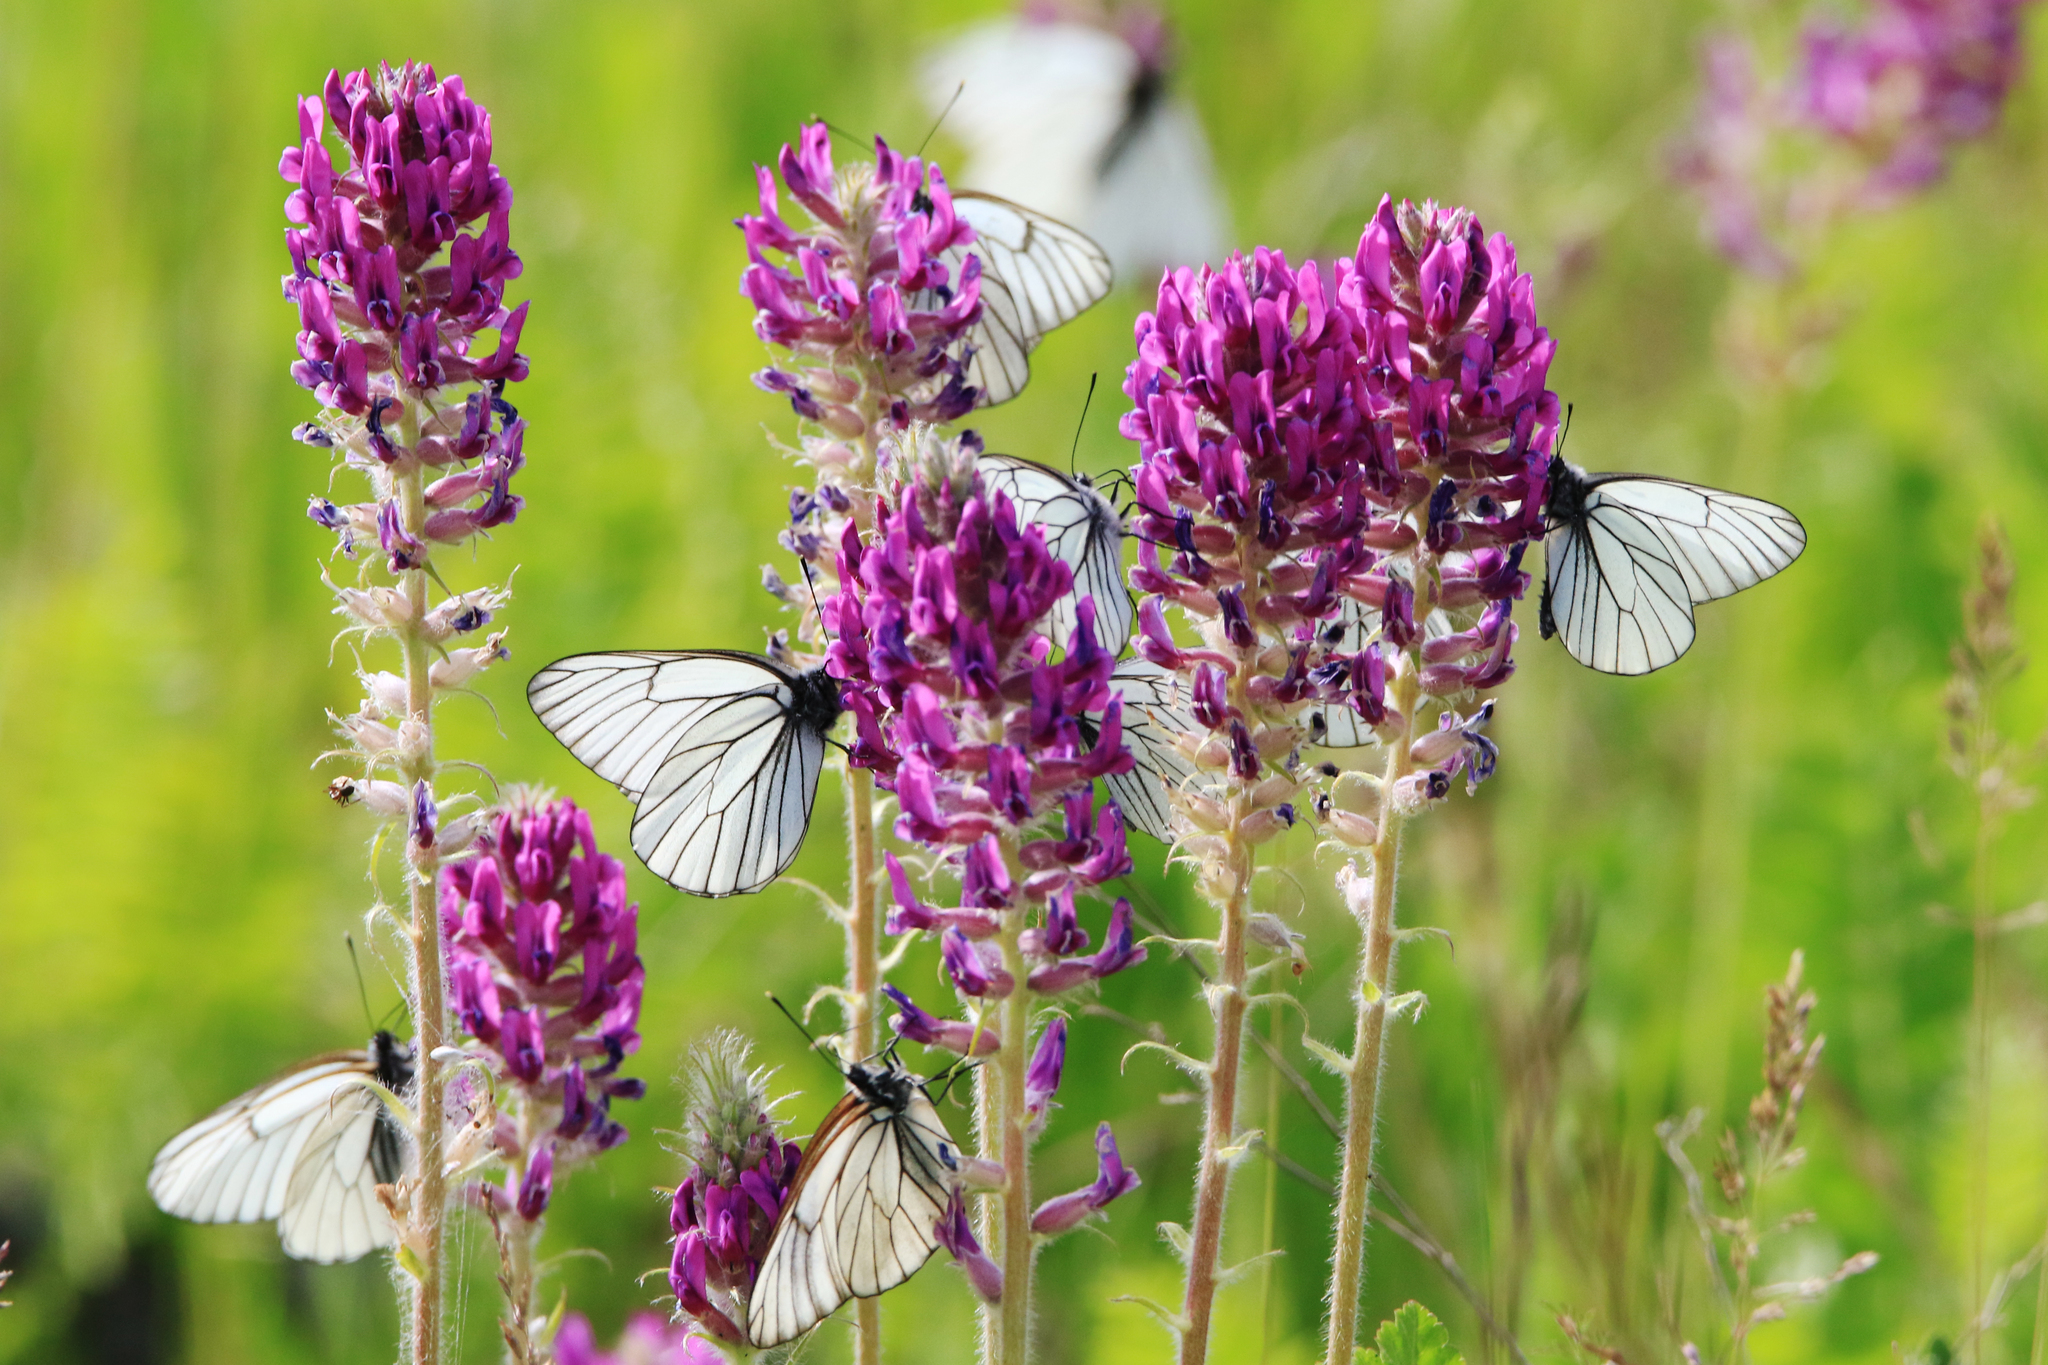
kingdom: Plantae
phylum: Tracheophyta
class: Magnoliopsida
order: Fabales
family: Fabaceae
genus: Oxytropis
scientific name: Oxytropis campanulata
